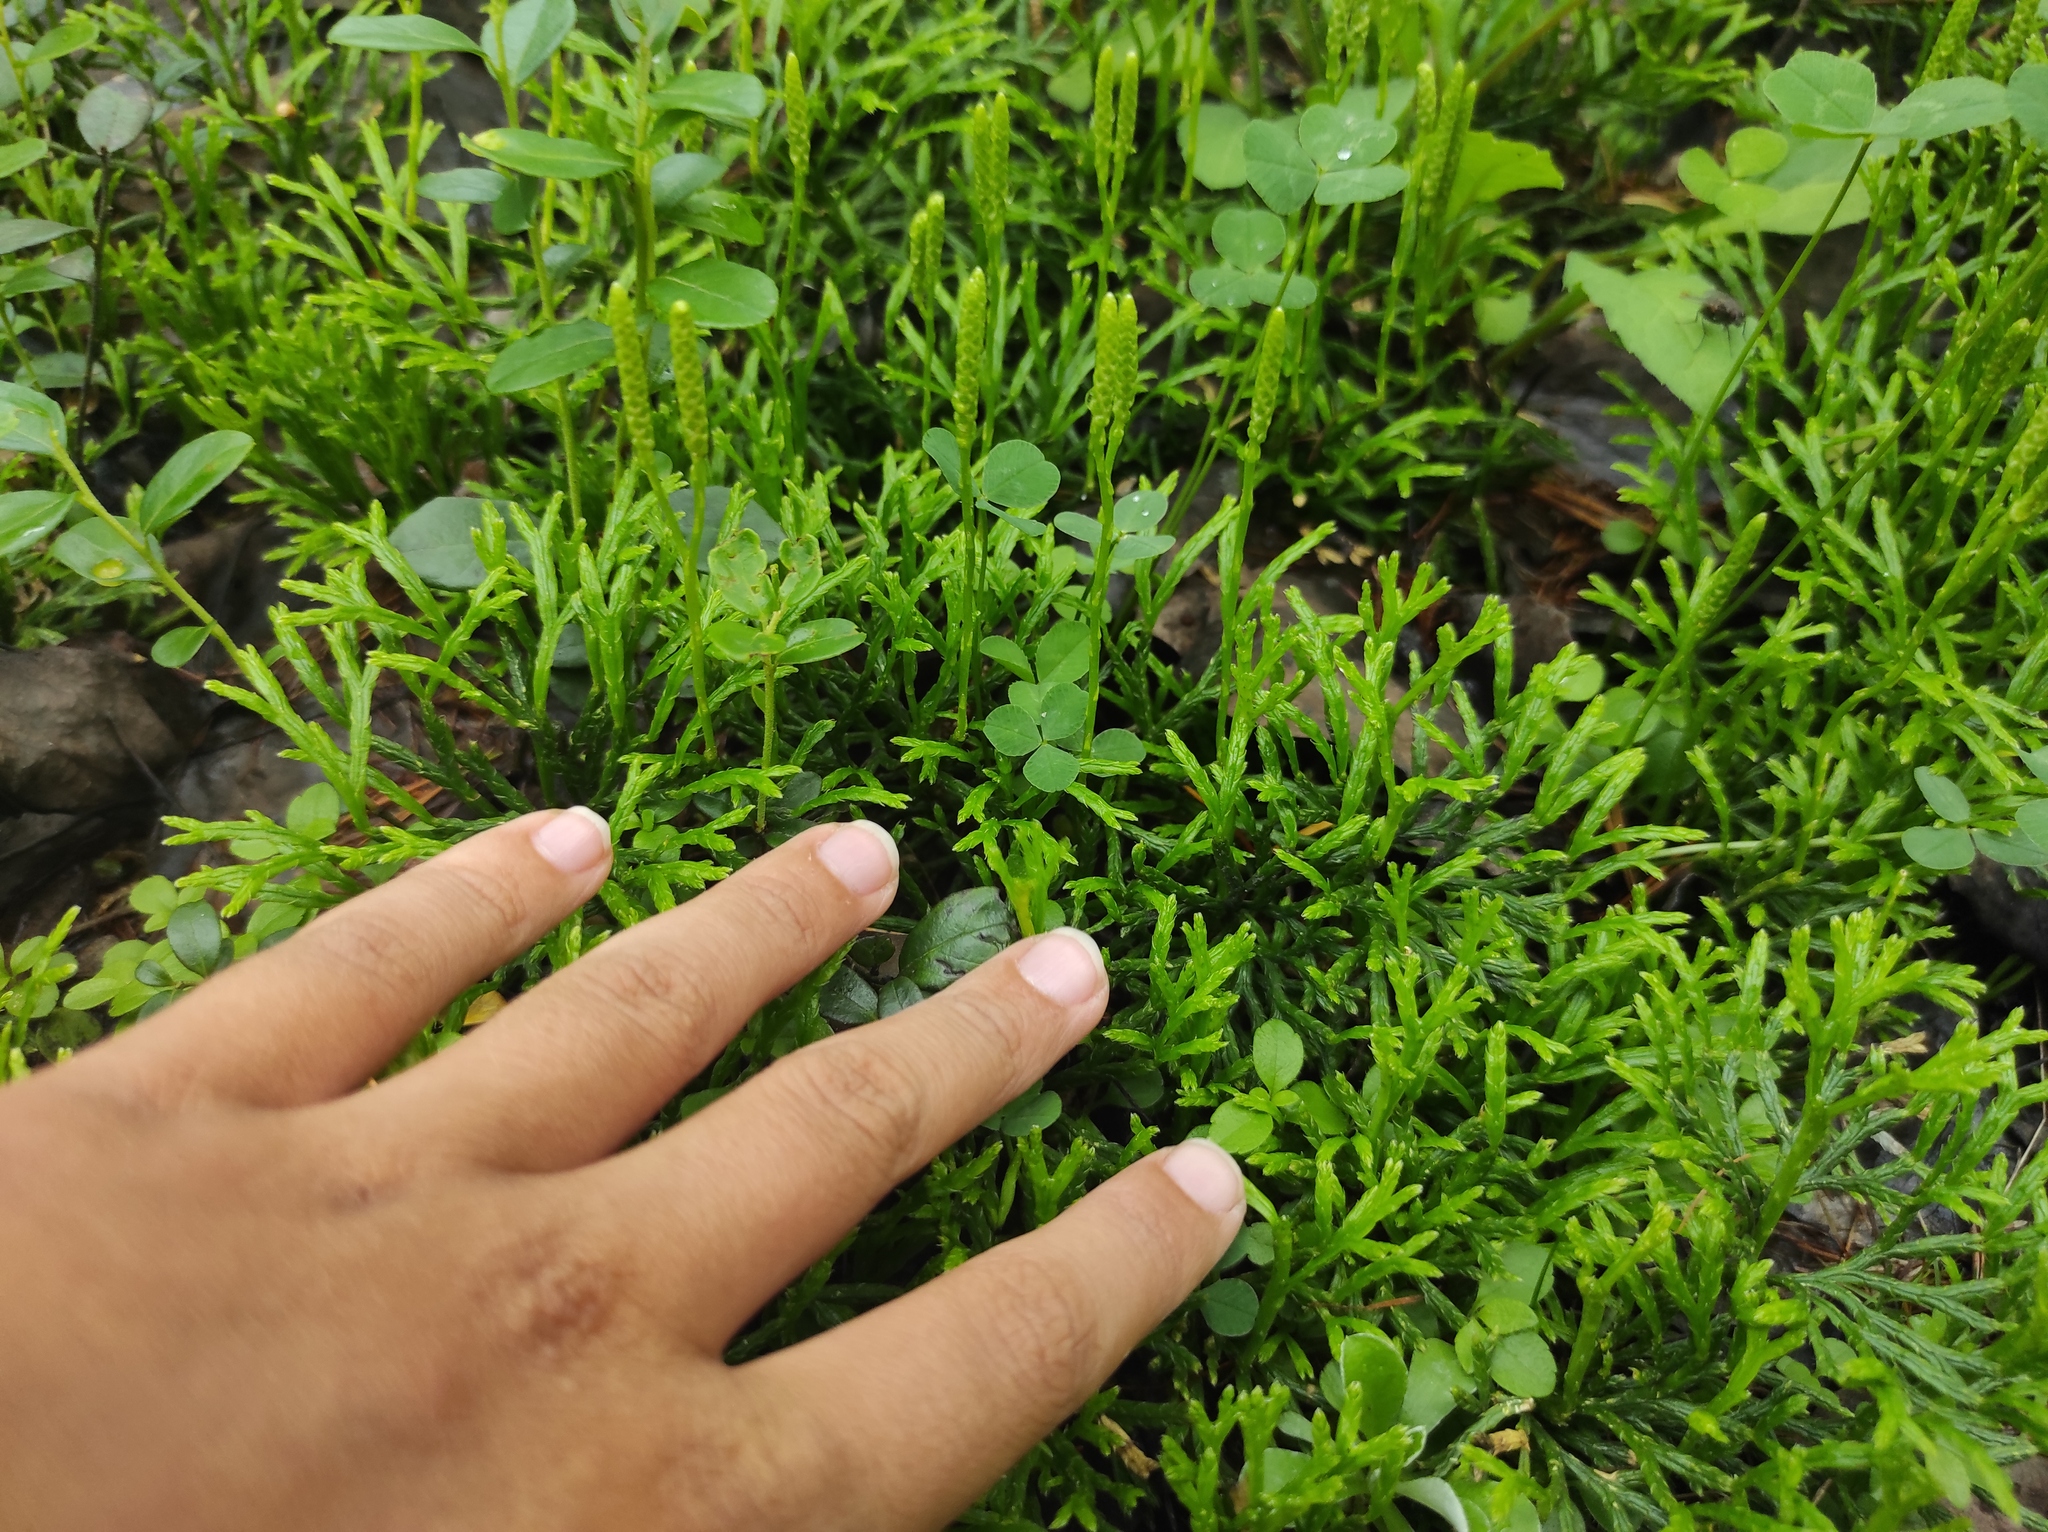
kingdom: Plantae
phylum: Tracheophyta
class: Lycopodiopsida
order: Lycopodiales
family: Lycopodiaceae
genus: Diphasiastrum
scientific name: Diphasiastrum complanatum
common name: Northern running-pine
